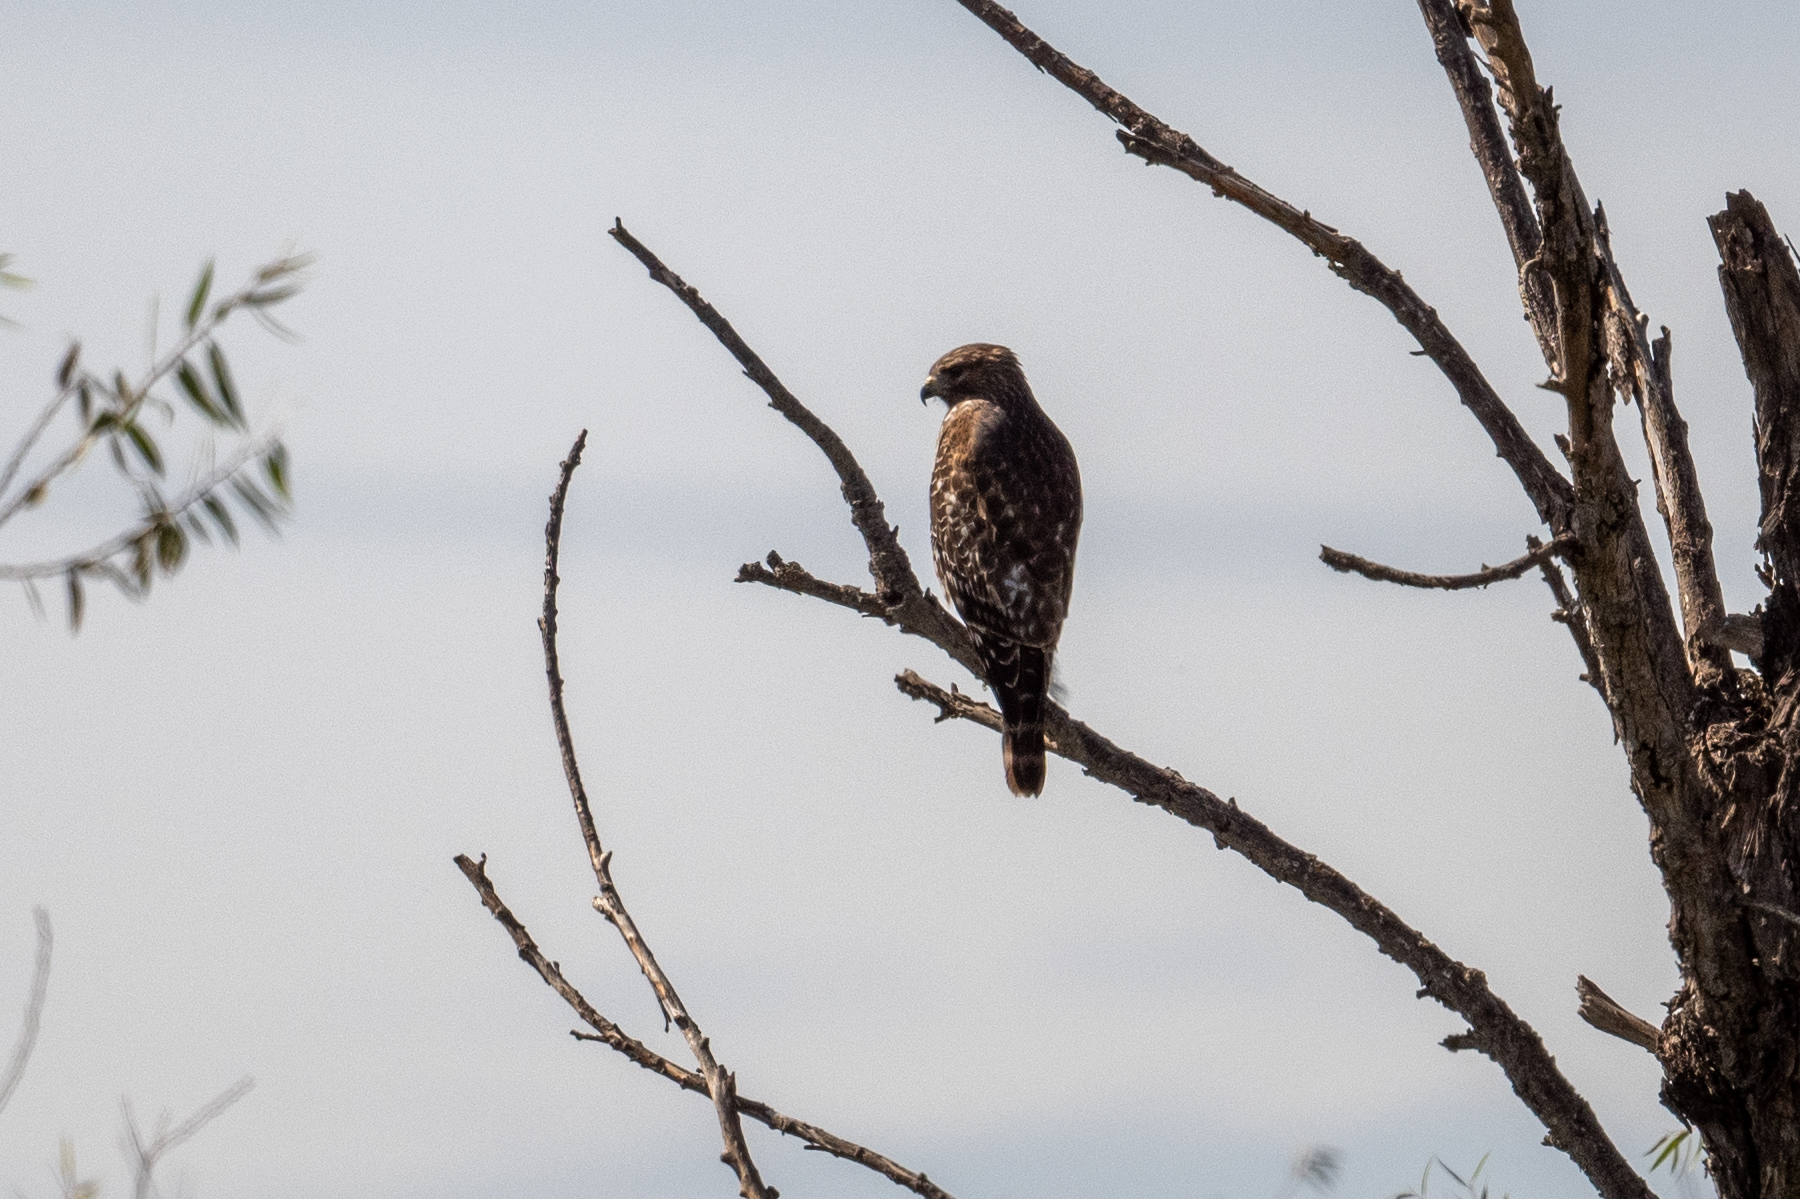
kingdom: Animalia
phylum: Chordata
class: Aves
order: Accipitriformes
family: Accipitridae
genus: Buteo
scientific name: Buteo lineatus
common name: Red-shouldered hawk
